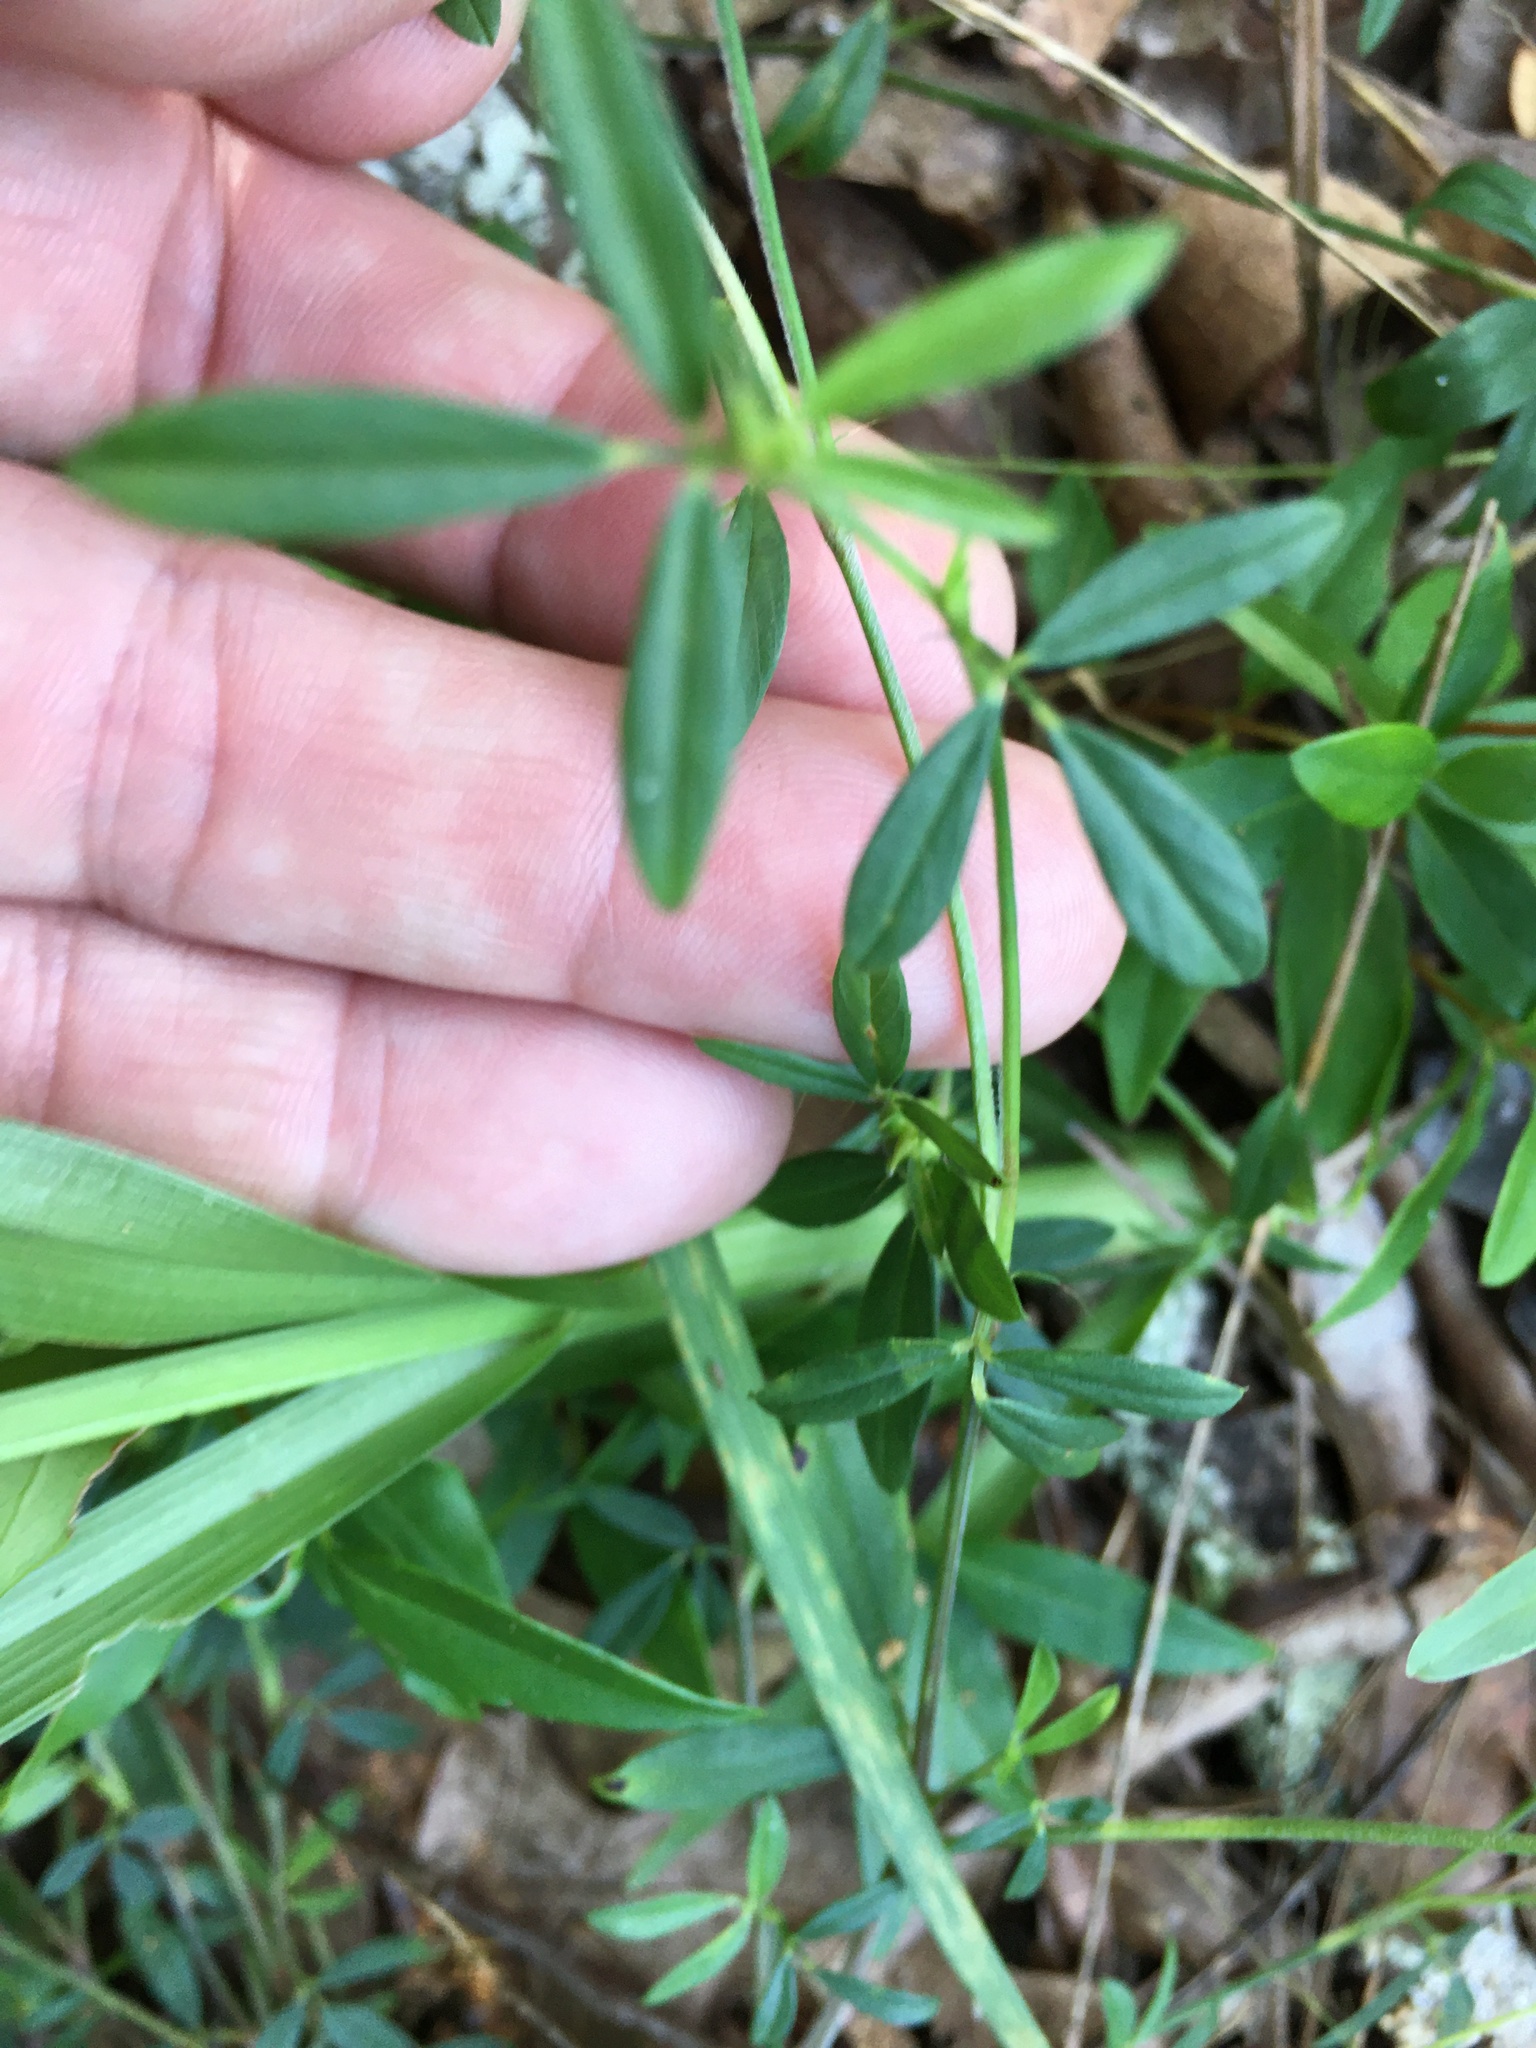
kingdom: Plantae
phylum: Tracheophyta
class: Magnoliopsida
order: Fabales
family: Fabaceae
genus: Stylosanthes
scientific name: Stylosanthes biflora
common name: Two-flower pencil-flower
